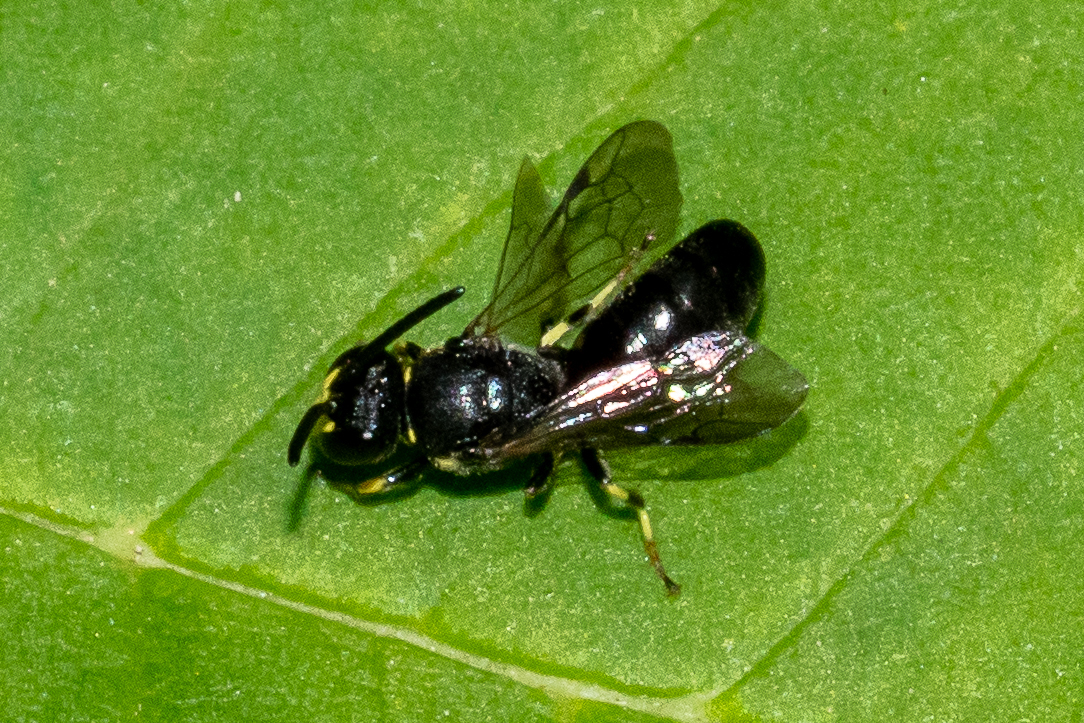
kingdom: Animalia
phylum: Arthropoda
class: Insecta
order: Hymenoptera
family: Colletidae
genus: Hylaeus
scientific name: Hylaeus modestus
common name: Yellow-faced bee
